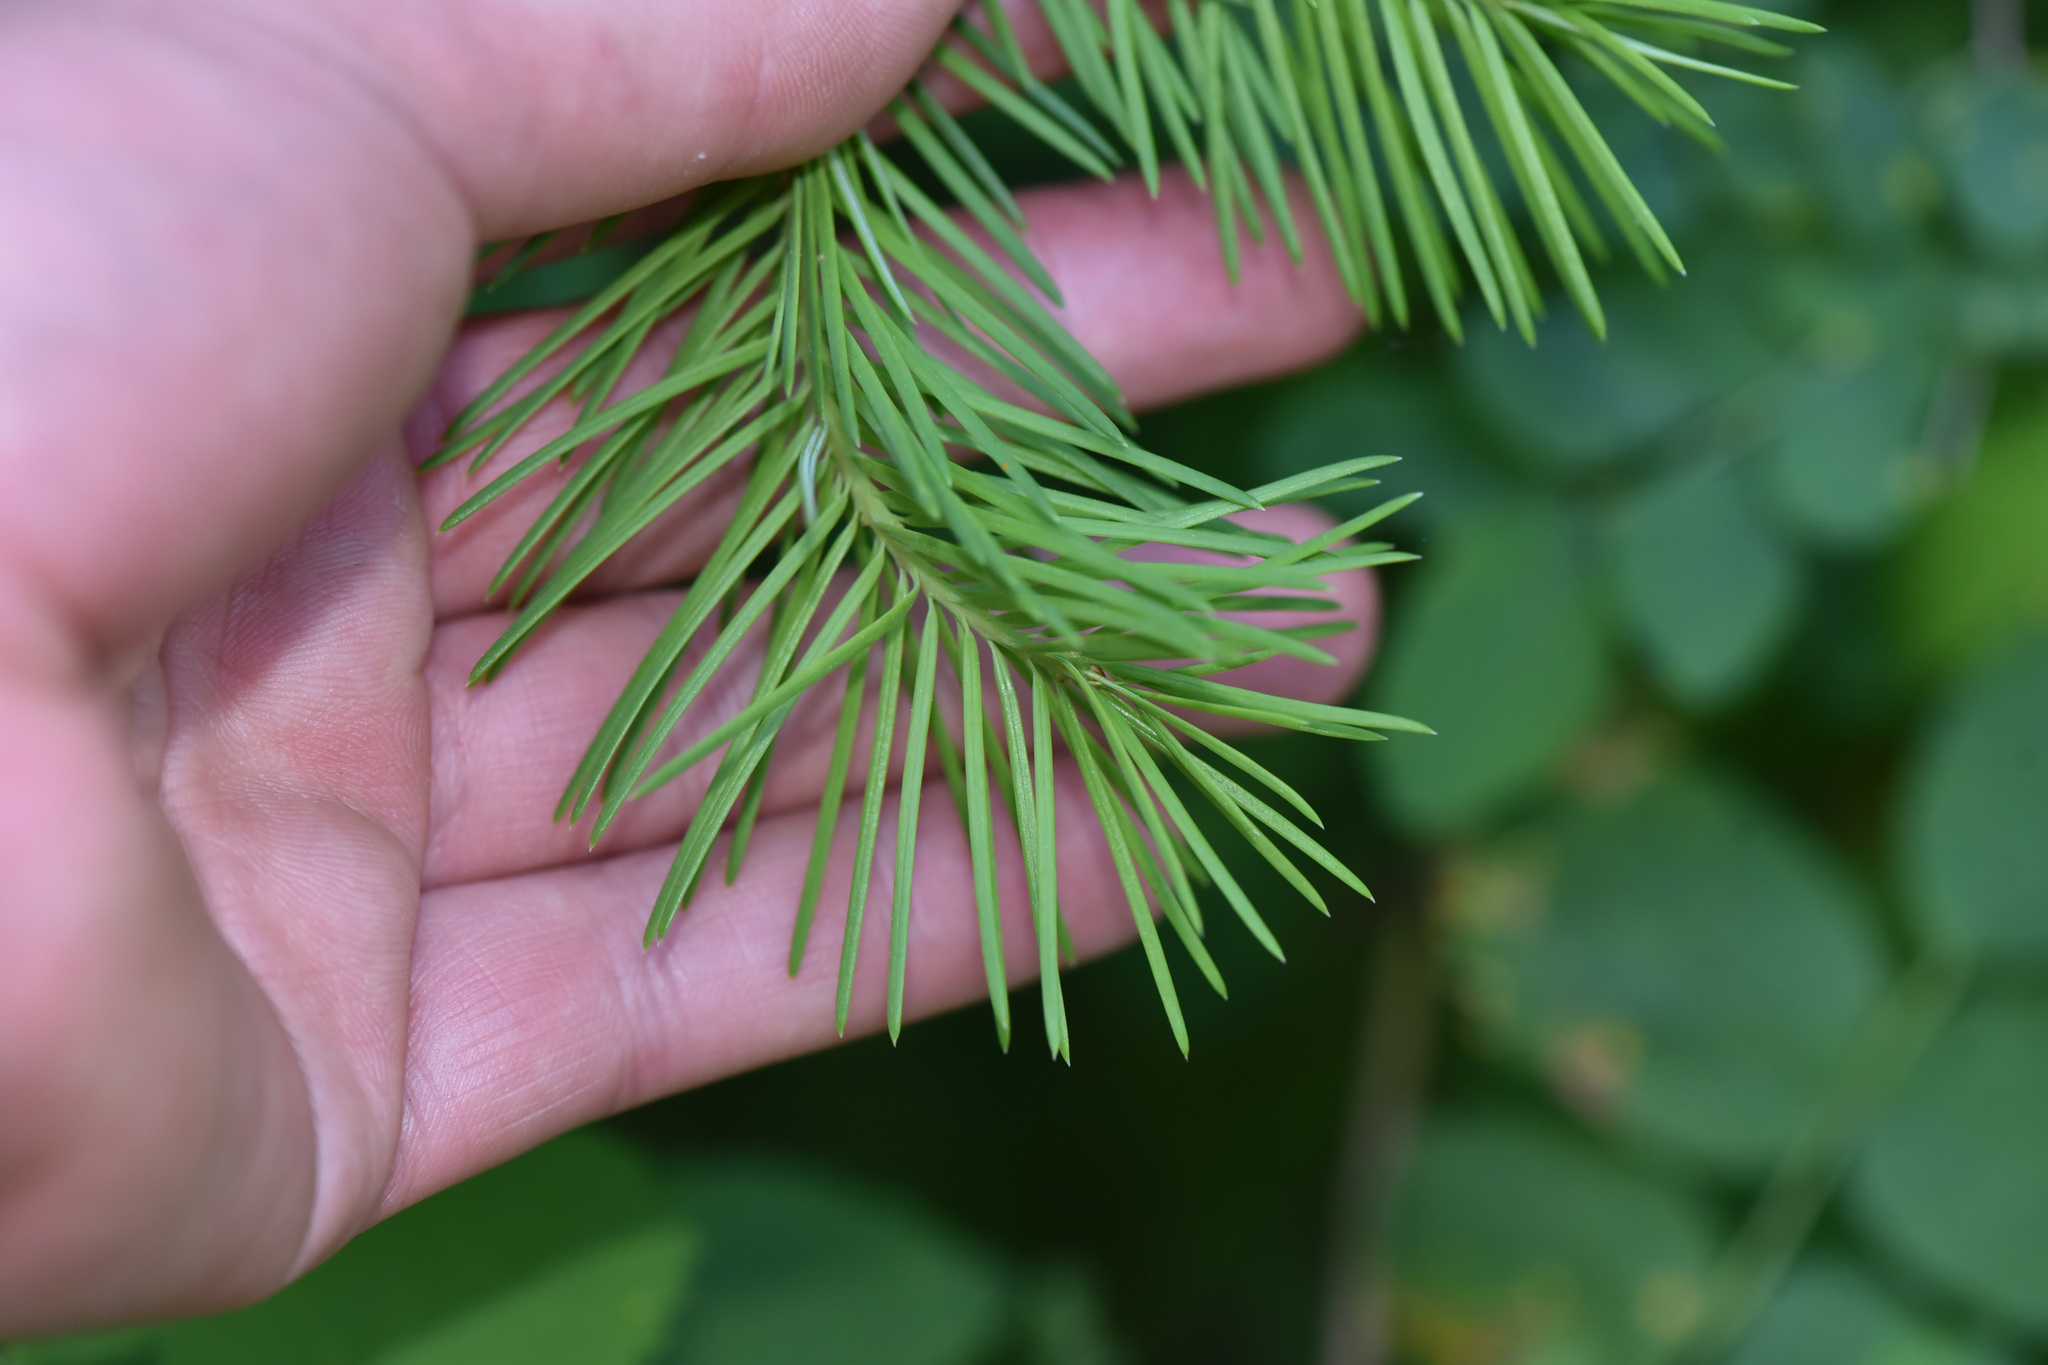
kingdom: Plantae
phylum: Tracheophyta
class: Pinopsida
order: Pinales
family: Pinaceae
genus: Pseudotsuga
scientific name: Pseudotsuga menziesii
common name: Douglas fir
